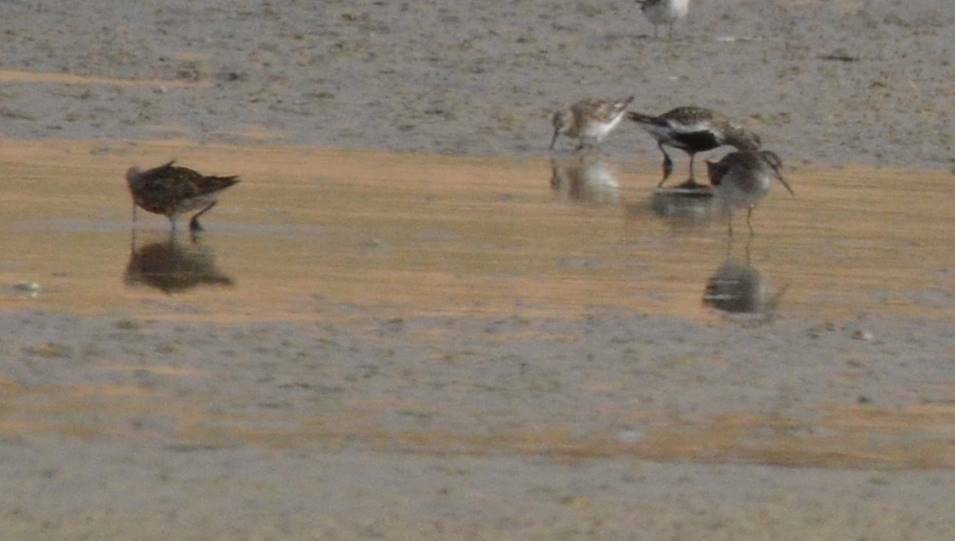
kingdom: Animalia
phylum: Chordata
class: Aves
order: Charadriiformes
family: Scolopacidae
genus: Calidris
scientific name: Calidris ferruginea
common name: Curlew sandpiper
